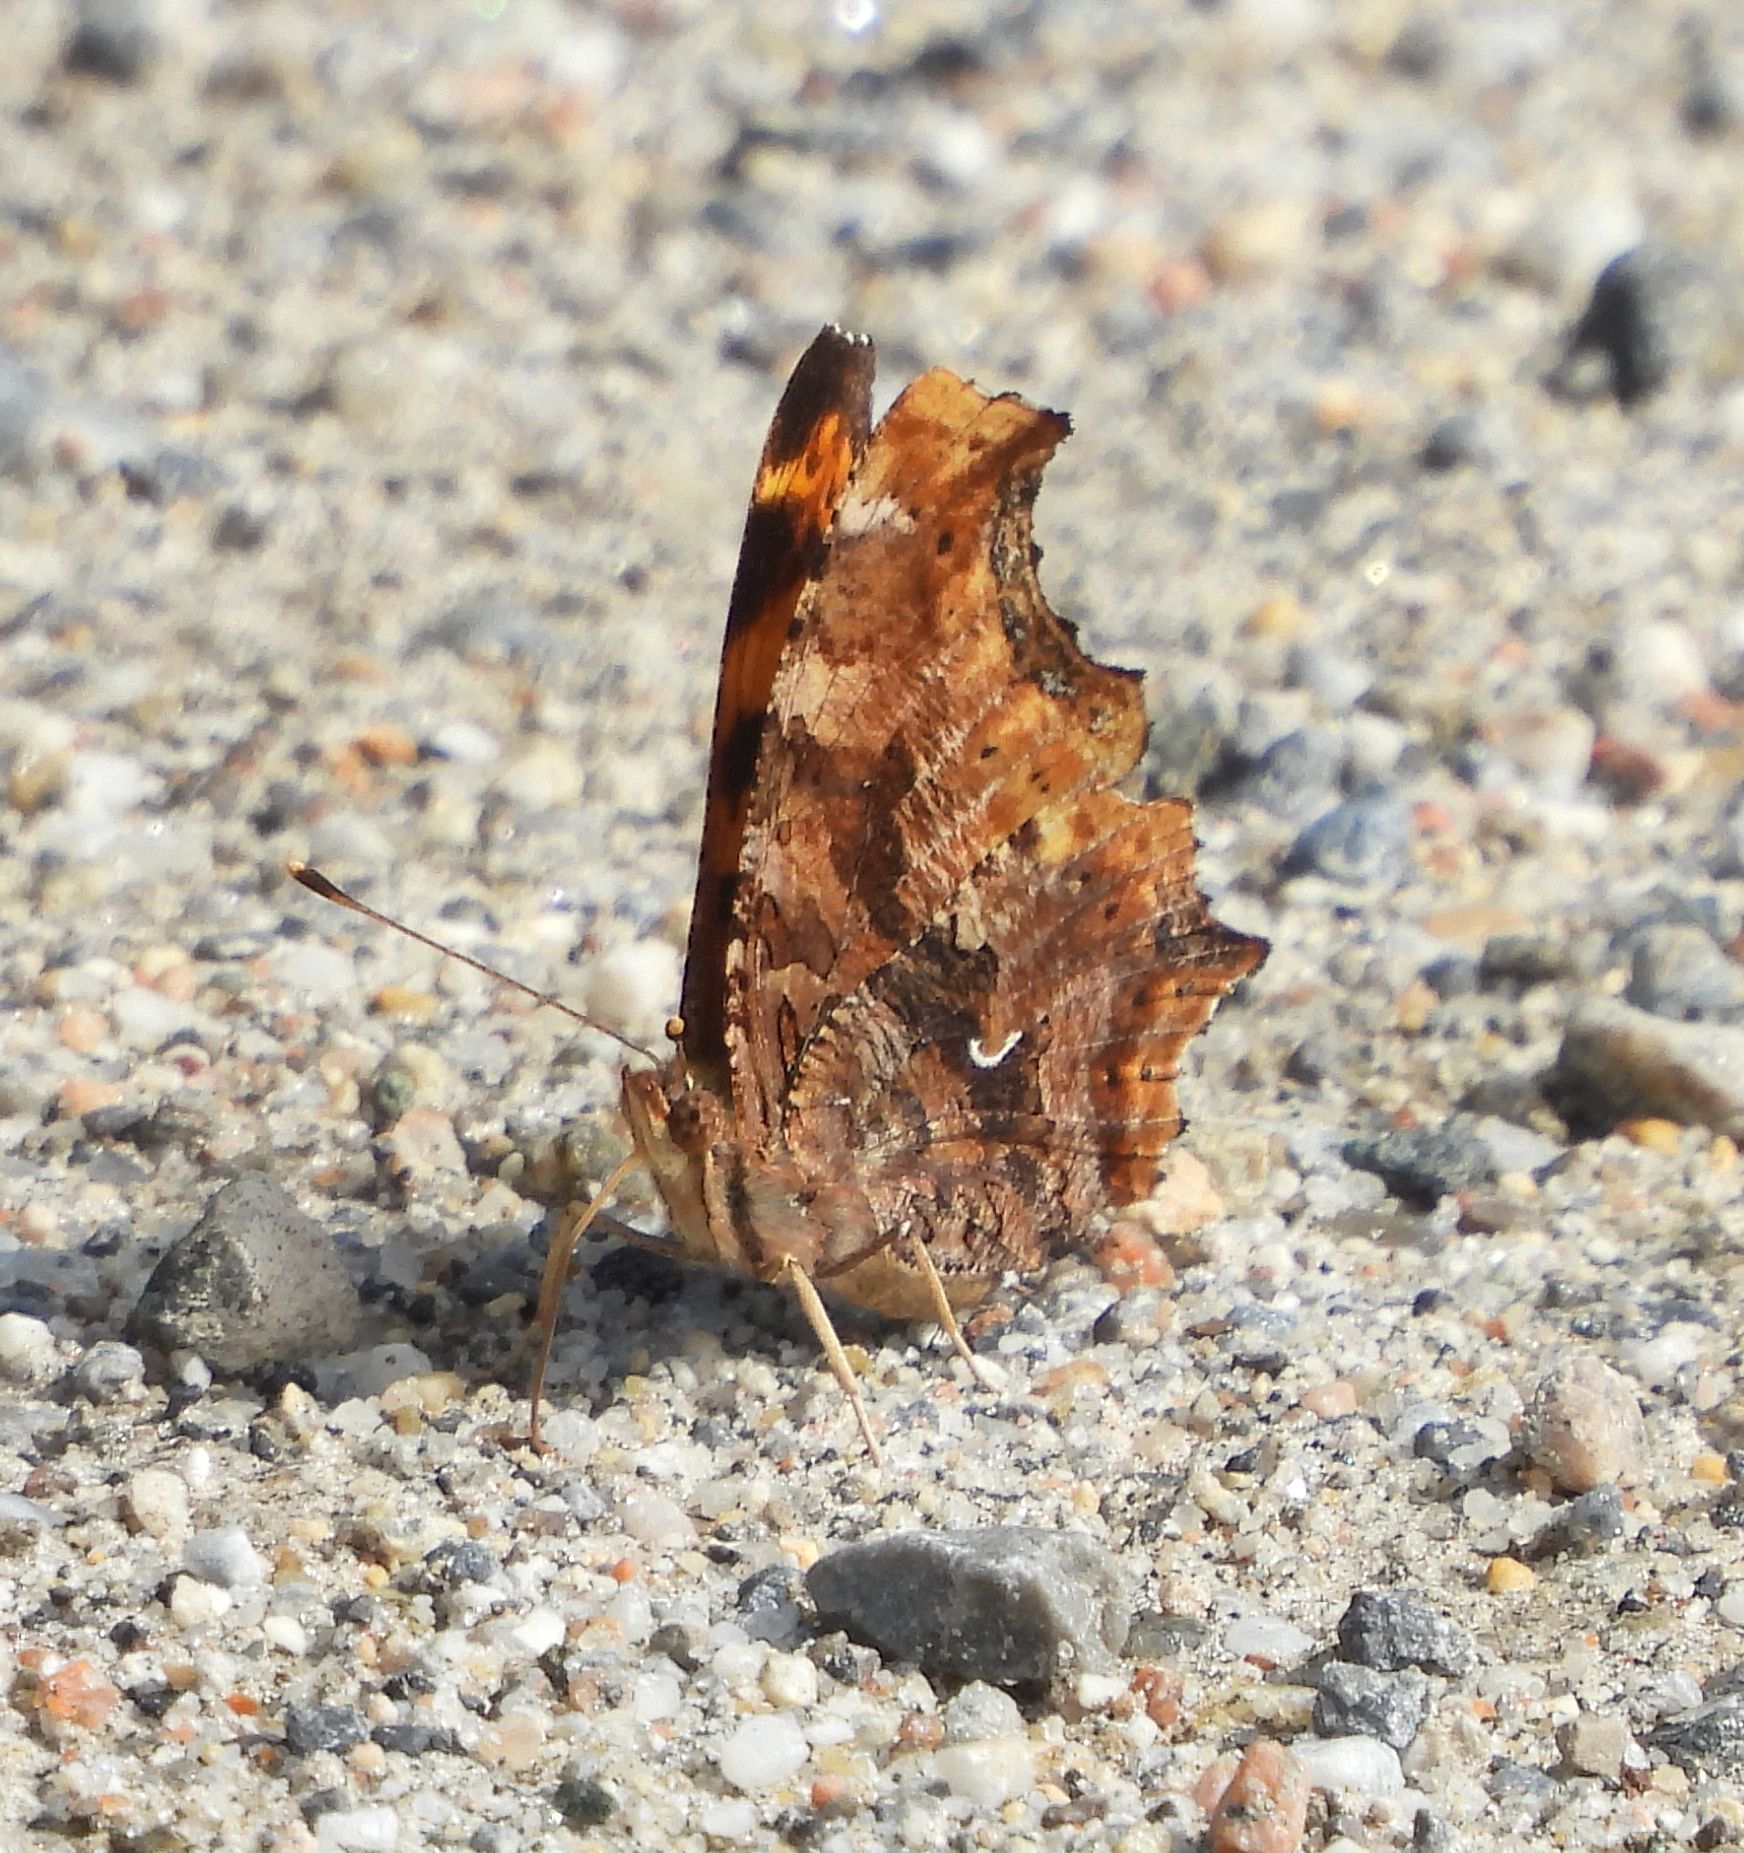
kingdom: Animalia
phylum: Arthropoda
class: Insecta
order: Lepidoptera
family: Nymphalidae
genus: Polygonia
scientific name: Polygonia comma
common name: Eastern comma
